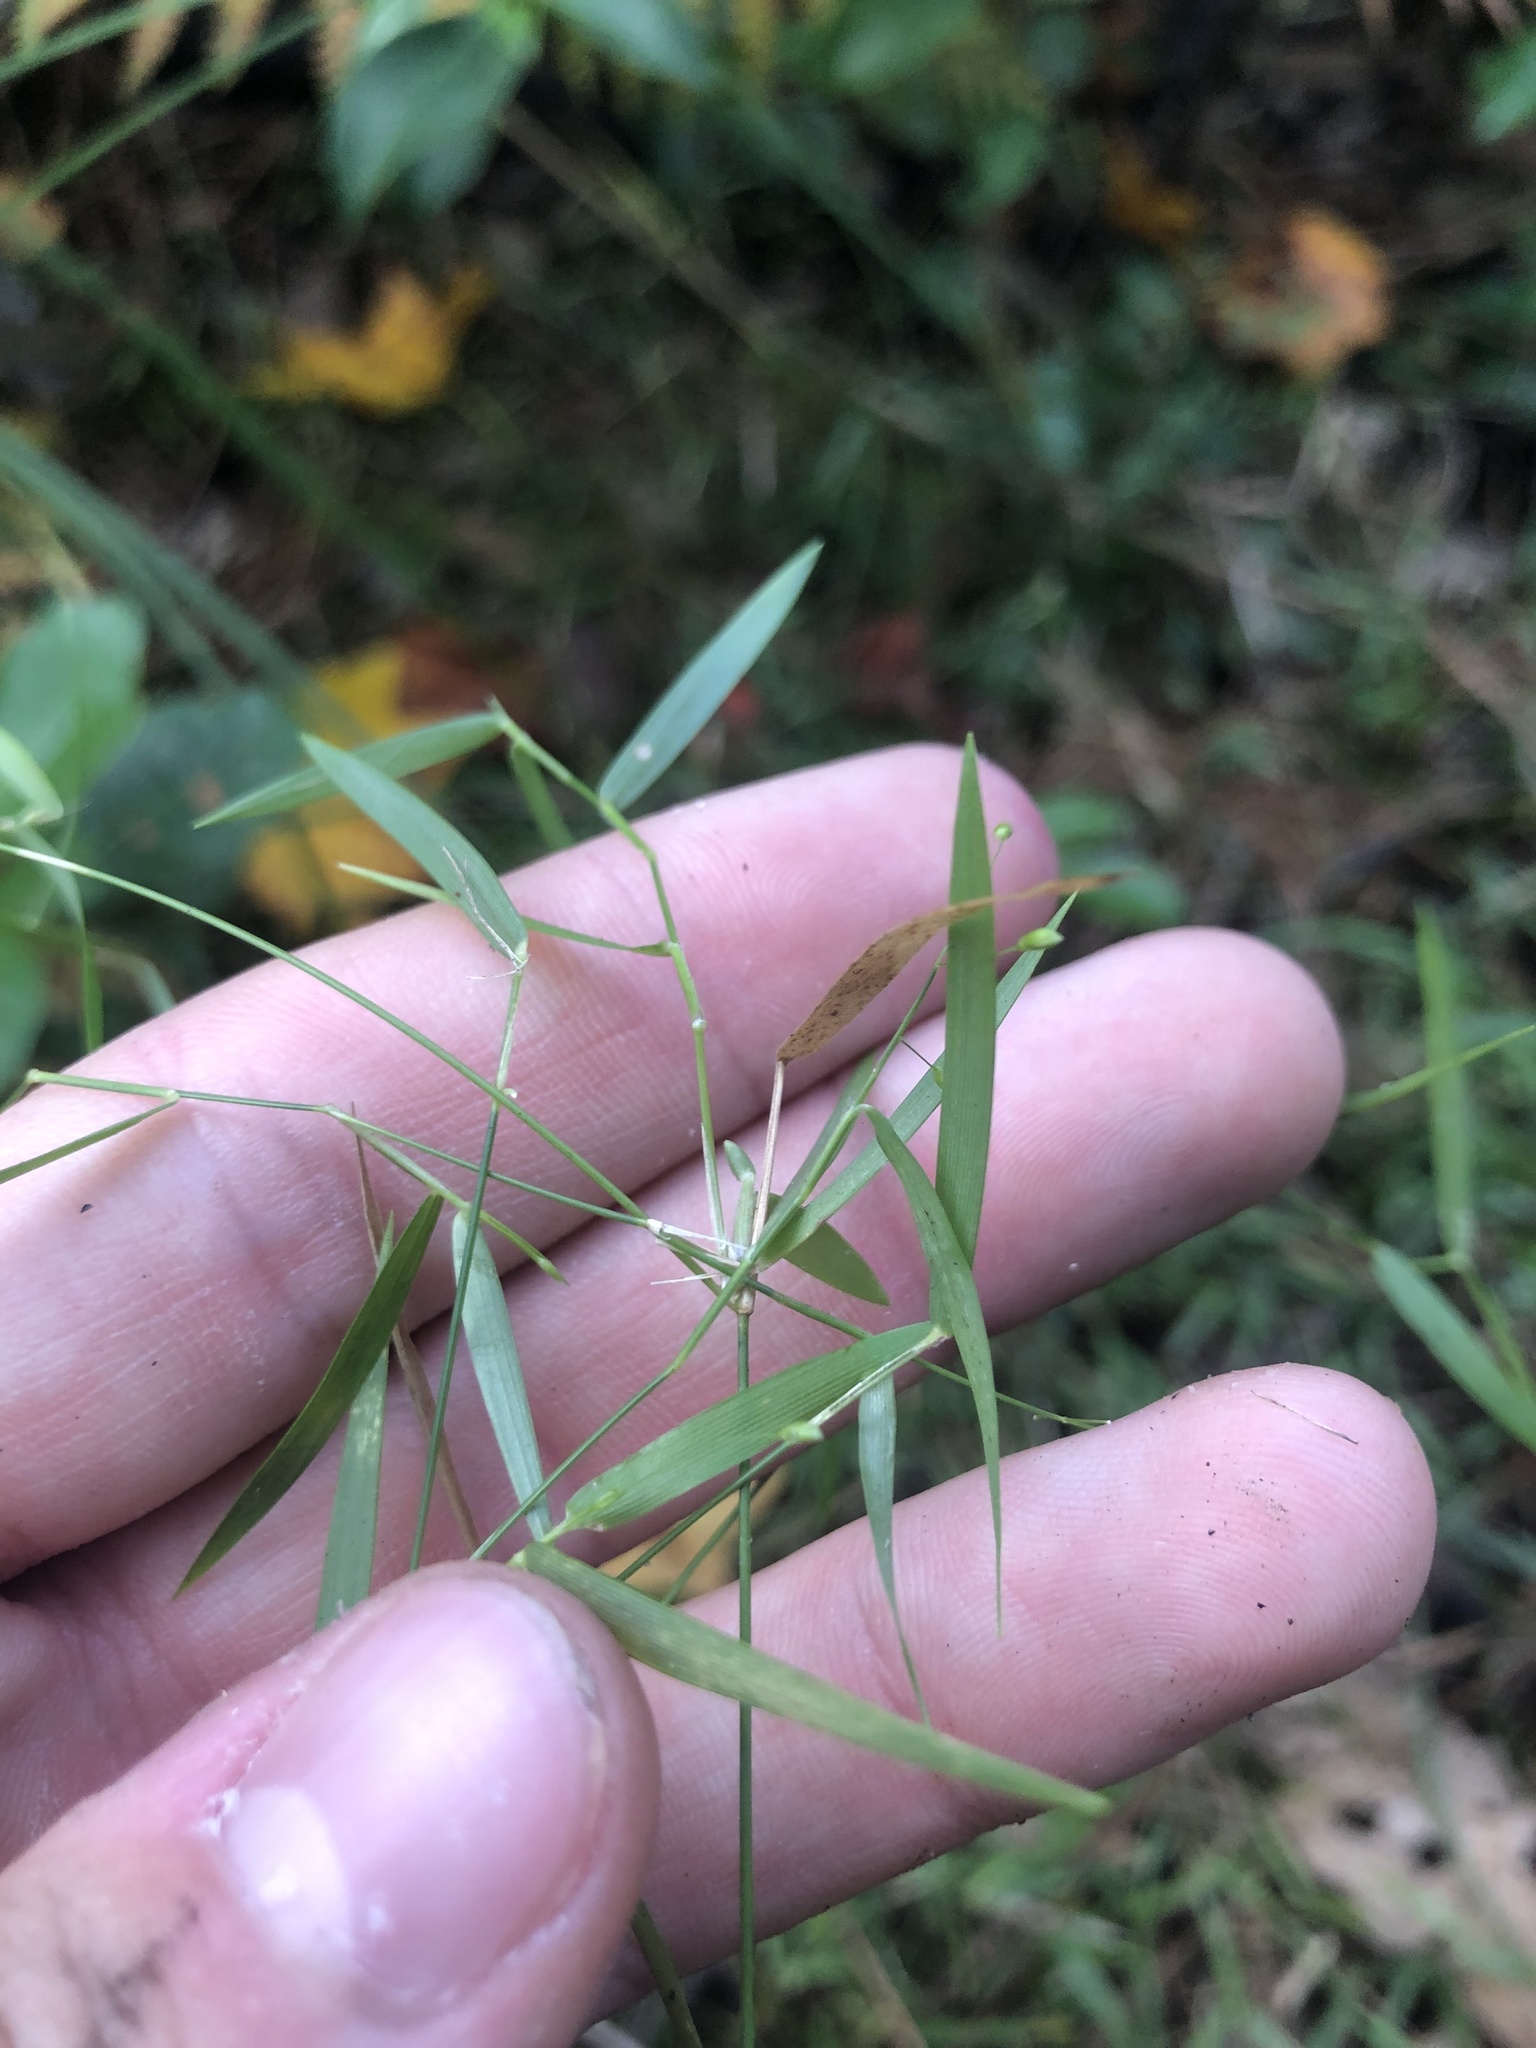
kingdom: Plantae
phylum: Tracheophyta
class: Liliopsida
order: Poales
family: Poaceae
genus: Dichanthelium
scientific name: Dichanthelium lucidum
